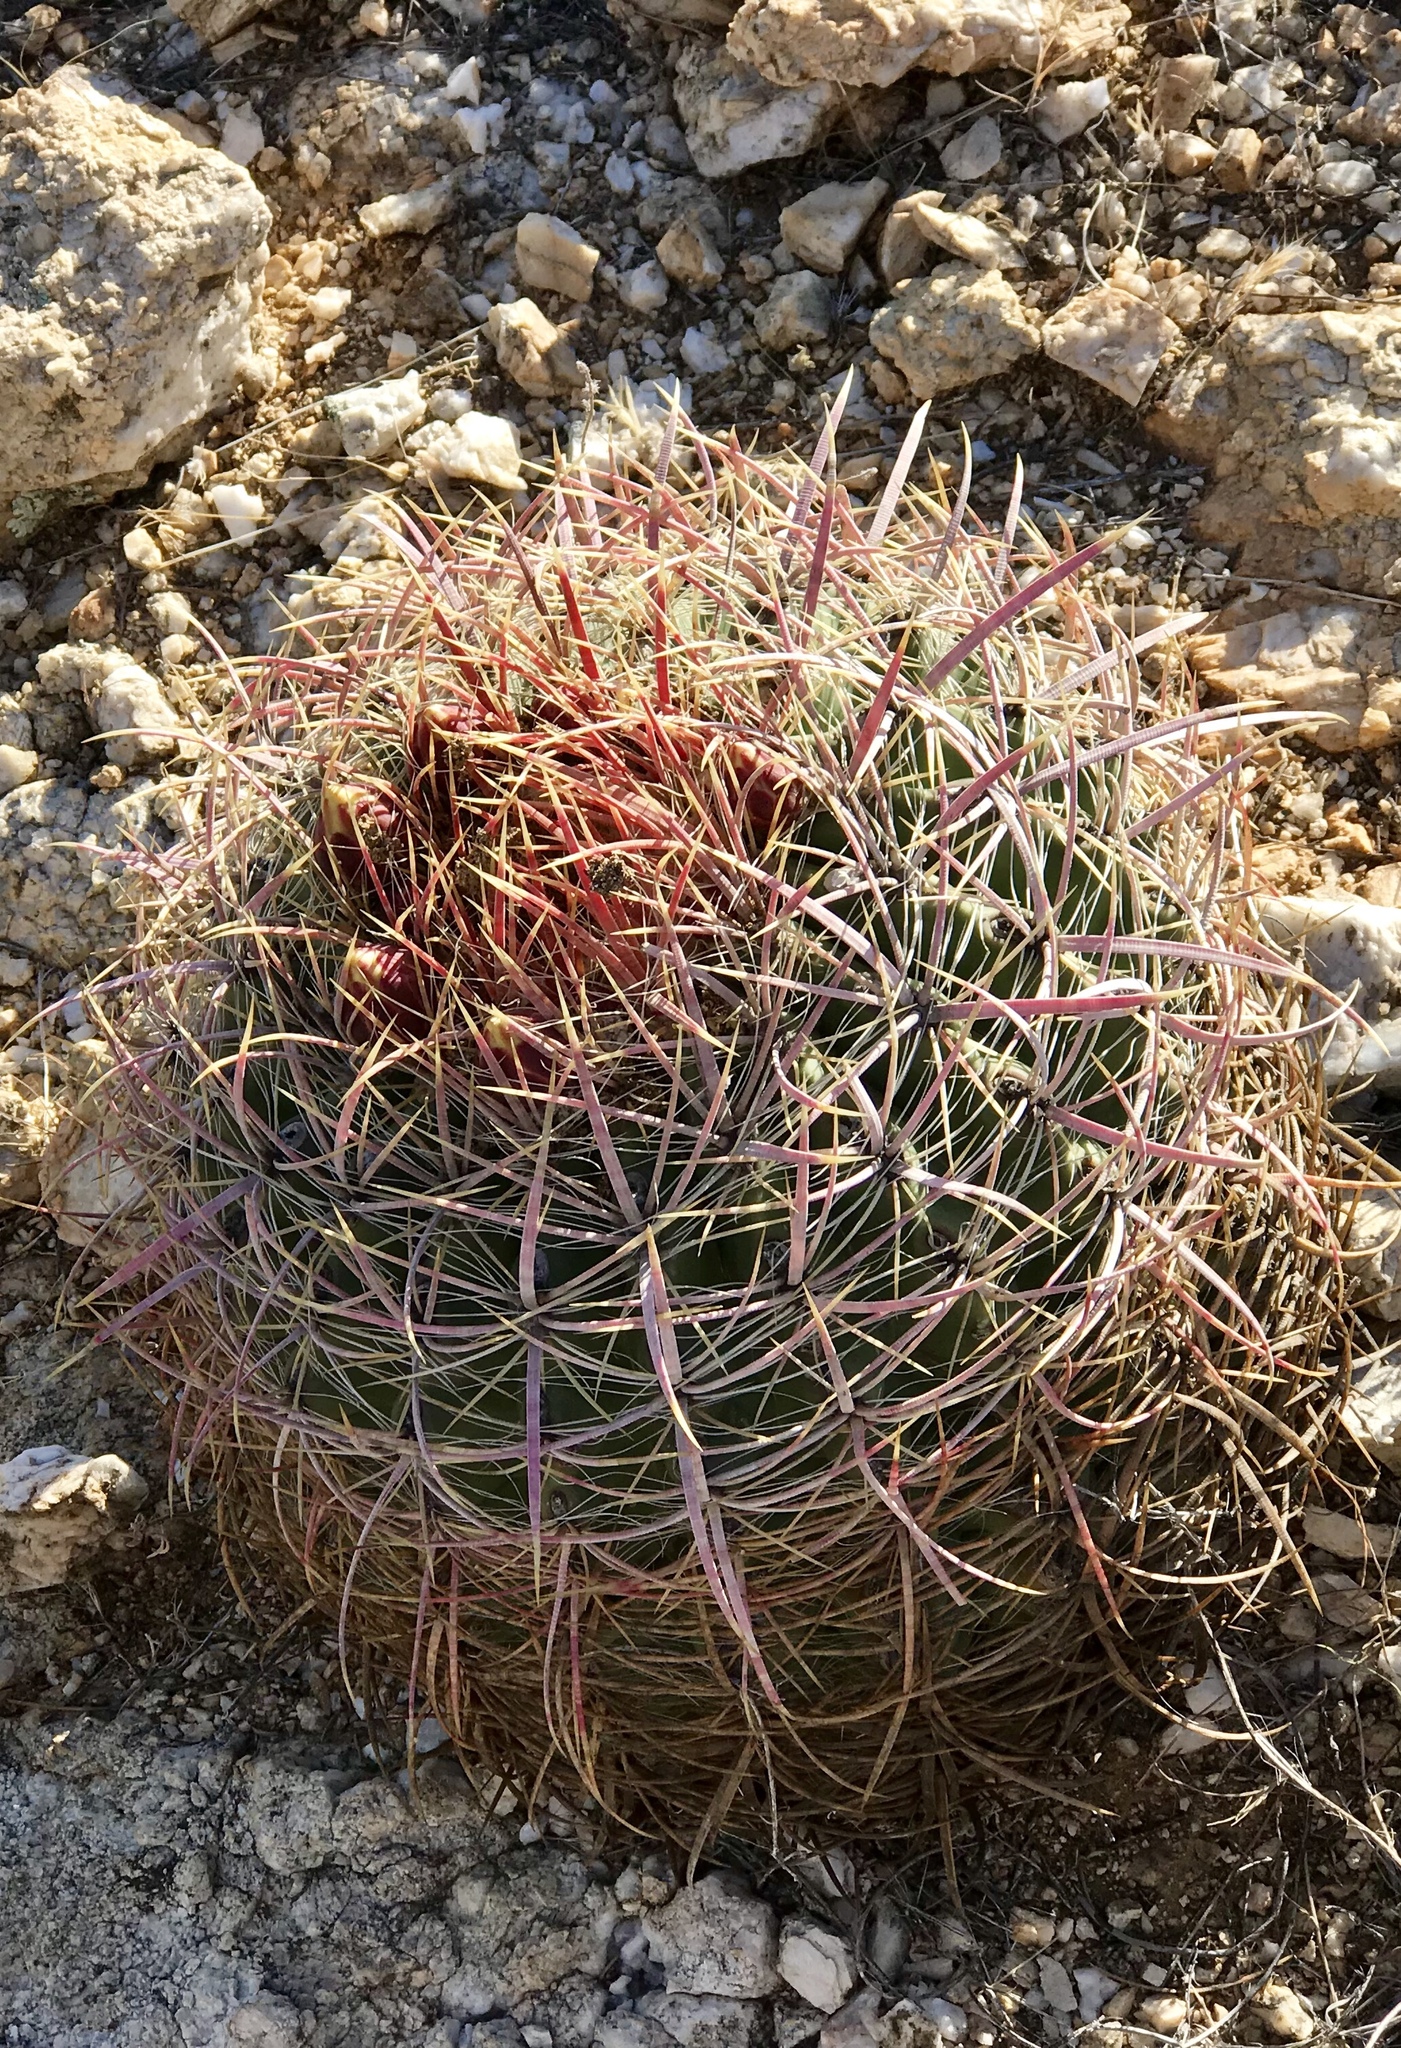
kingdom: Plantae
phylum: Tracheophyta
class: Magnoliopsida
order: Caryophyllales
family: Cactaceae
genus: Ferocactus
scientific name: Ferocactus cylindraceus
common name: California barrel cactus
